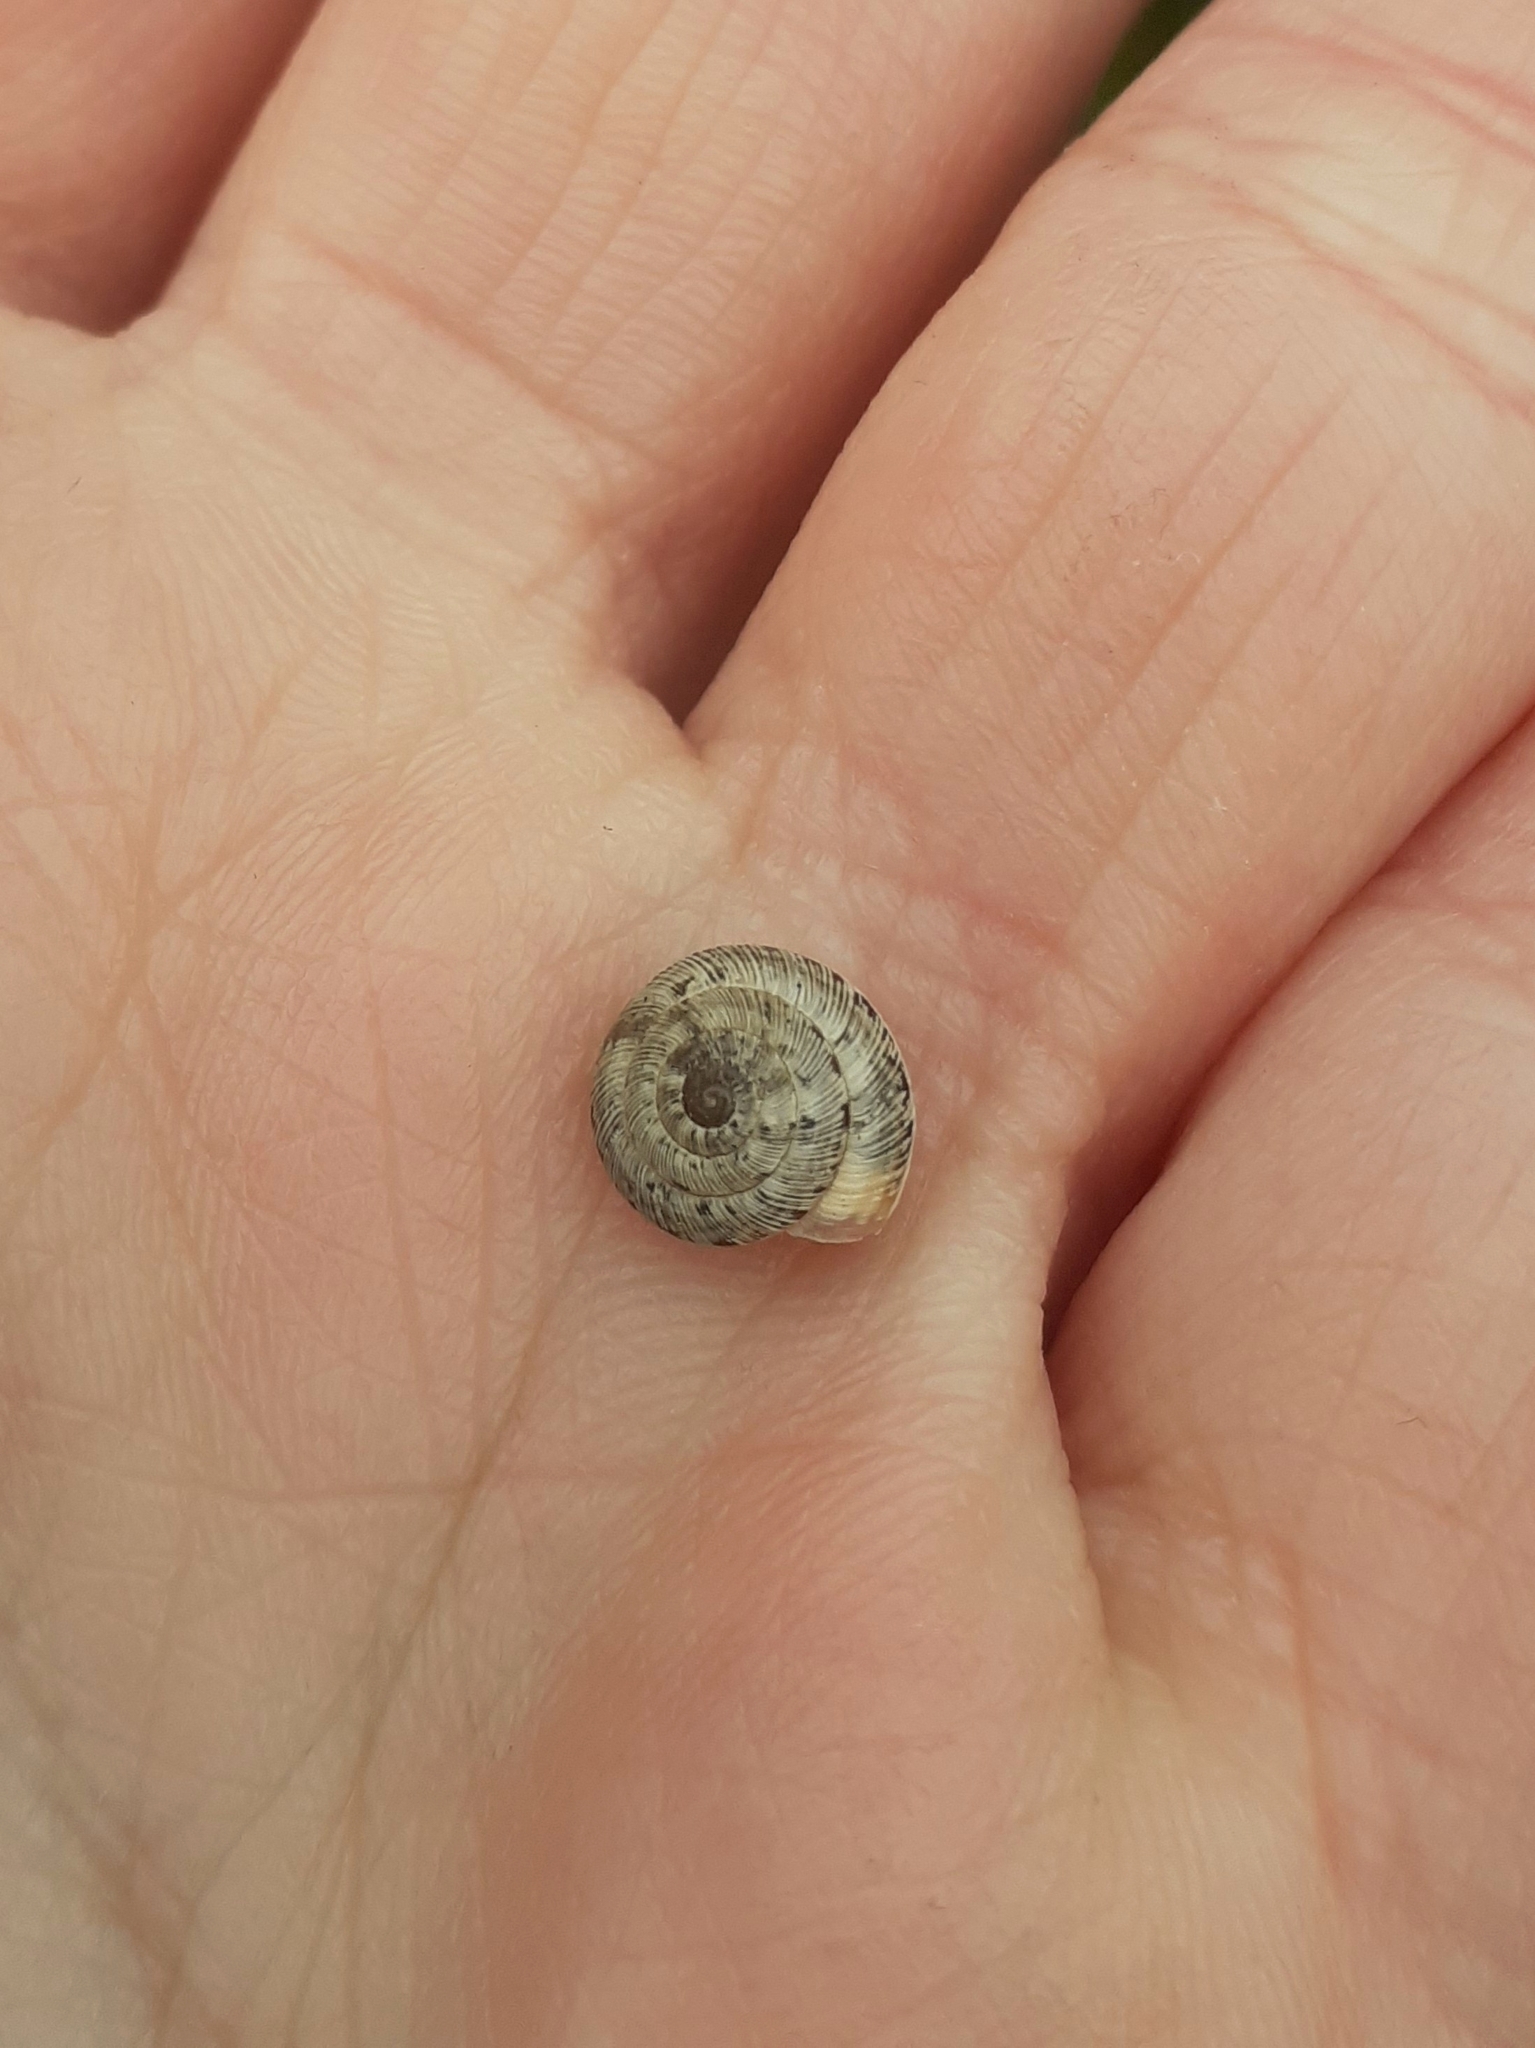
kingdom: Animalia
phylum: Mollusca
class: Gastropoda
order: Stylommatophora
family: Geomitridae
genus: Xeroplexa
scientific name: Xeroplexa intersecta
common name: Wrinkled snail
